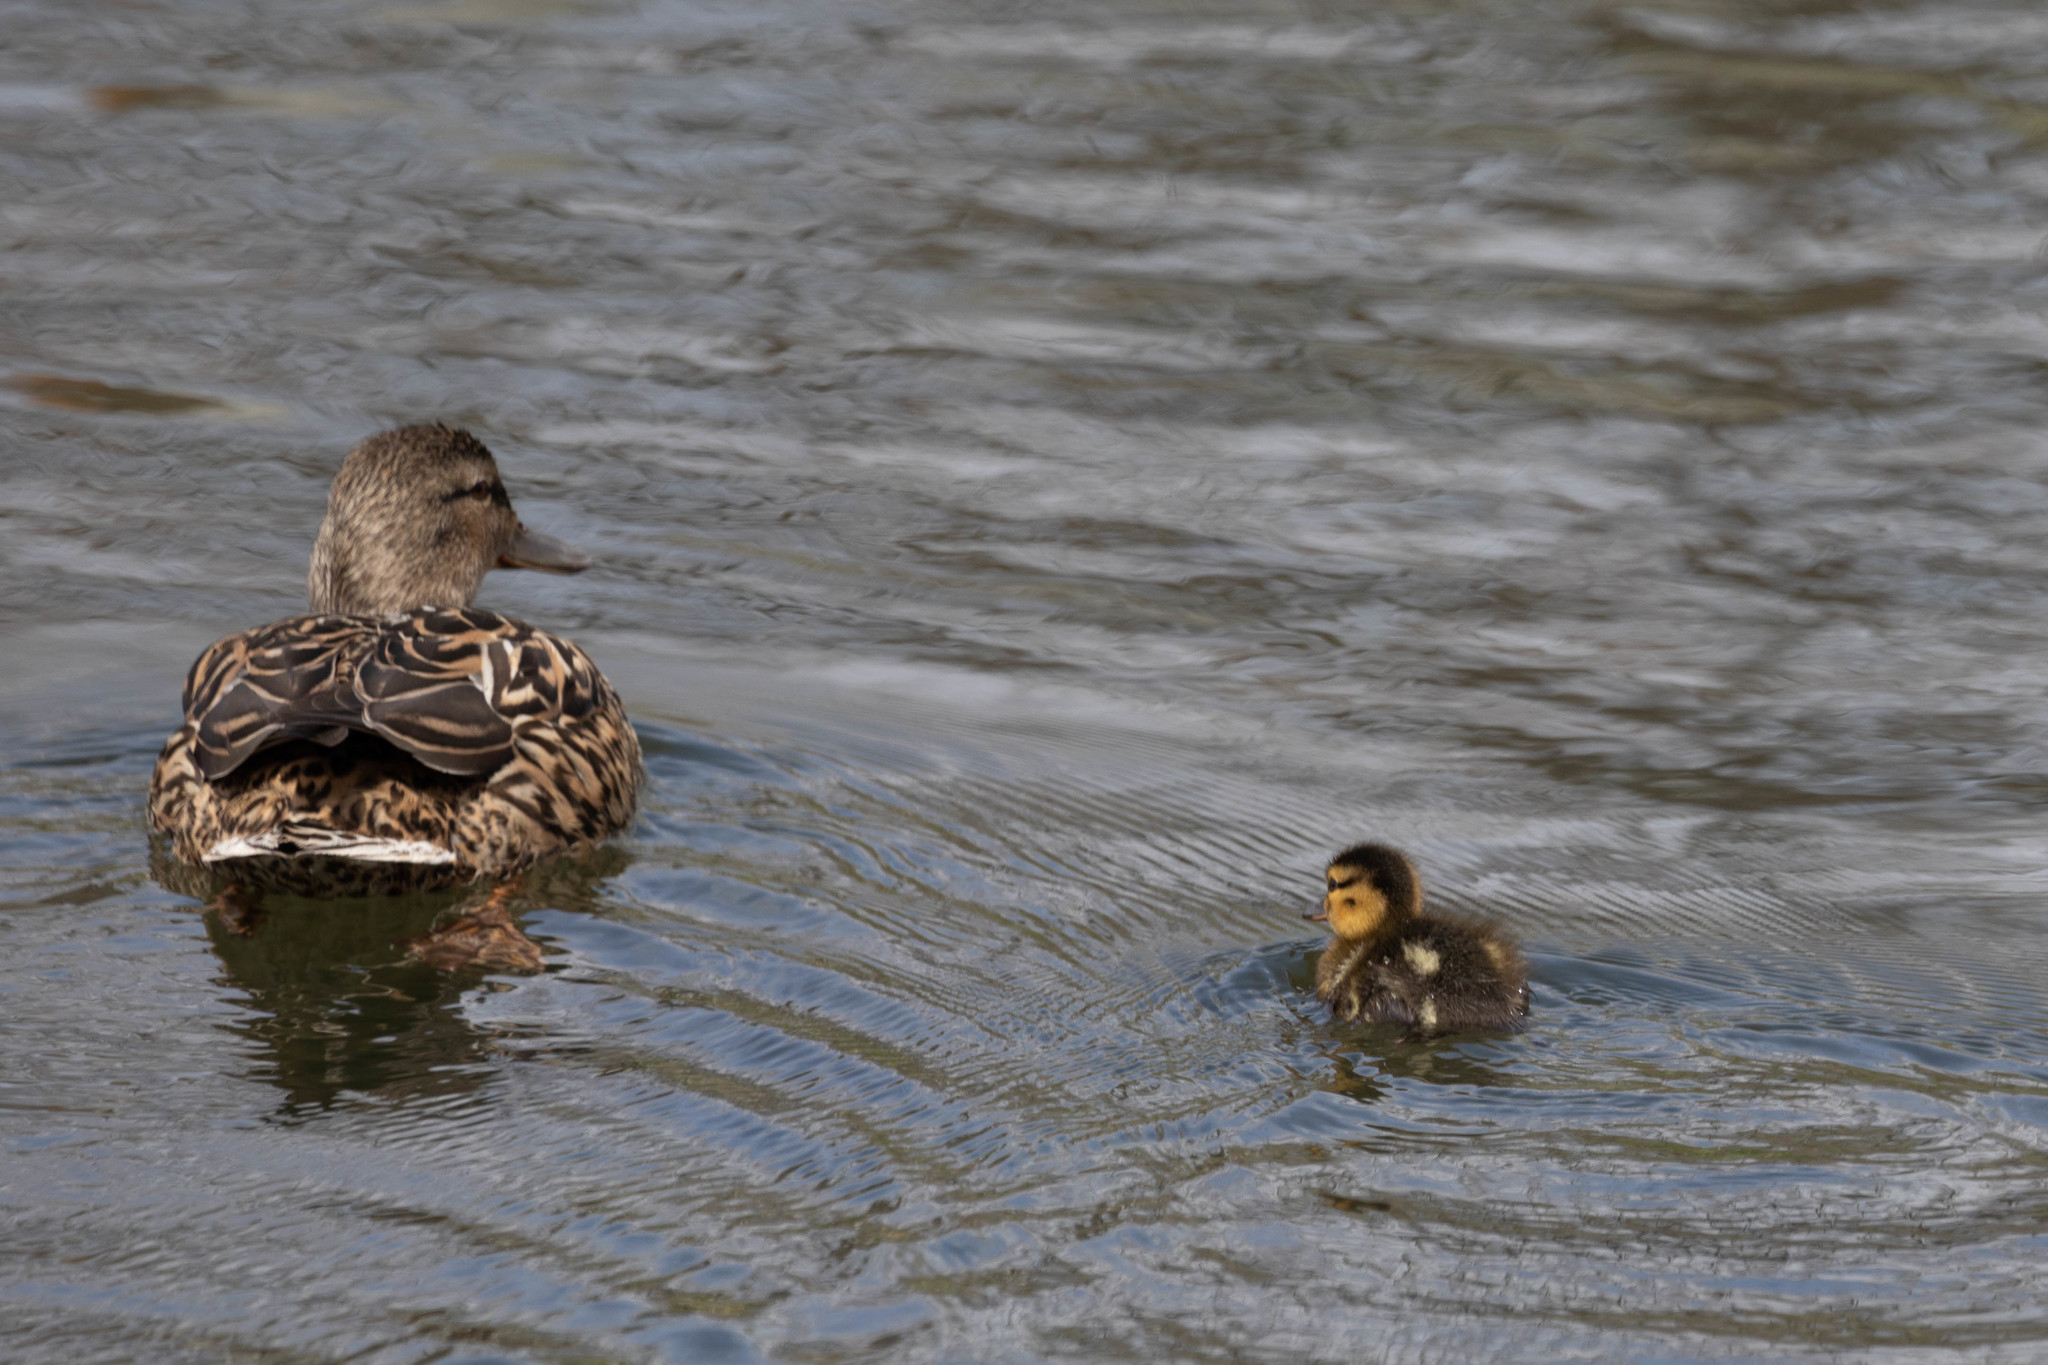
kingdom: Animalia
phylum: Chordata
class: Aves
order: Anseriformes
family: Anatidae
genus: Anas
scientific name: Anas platyrhynchos
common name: Mallard
